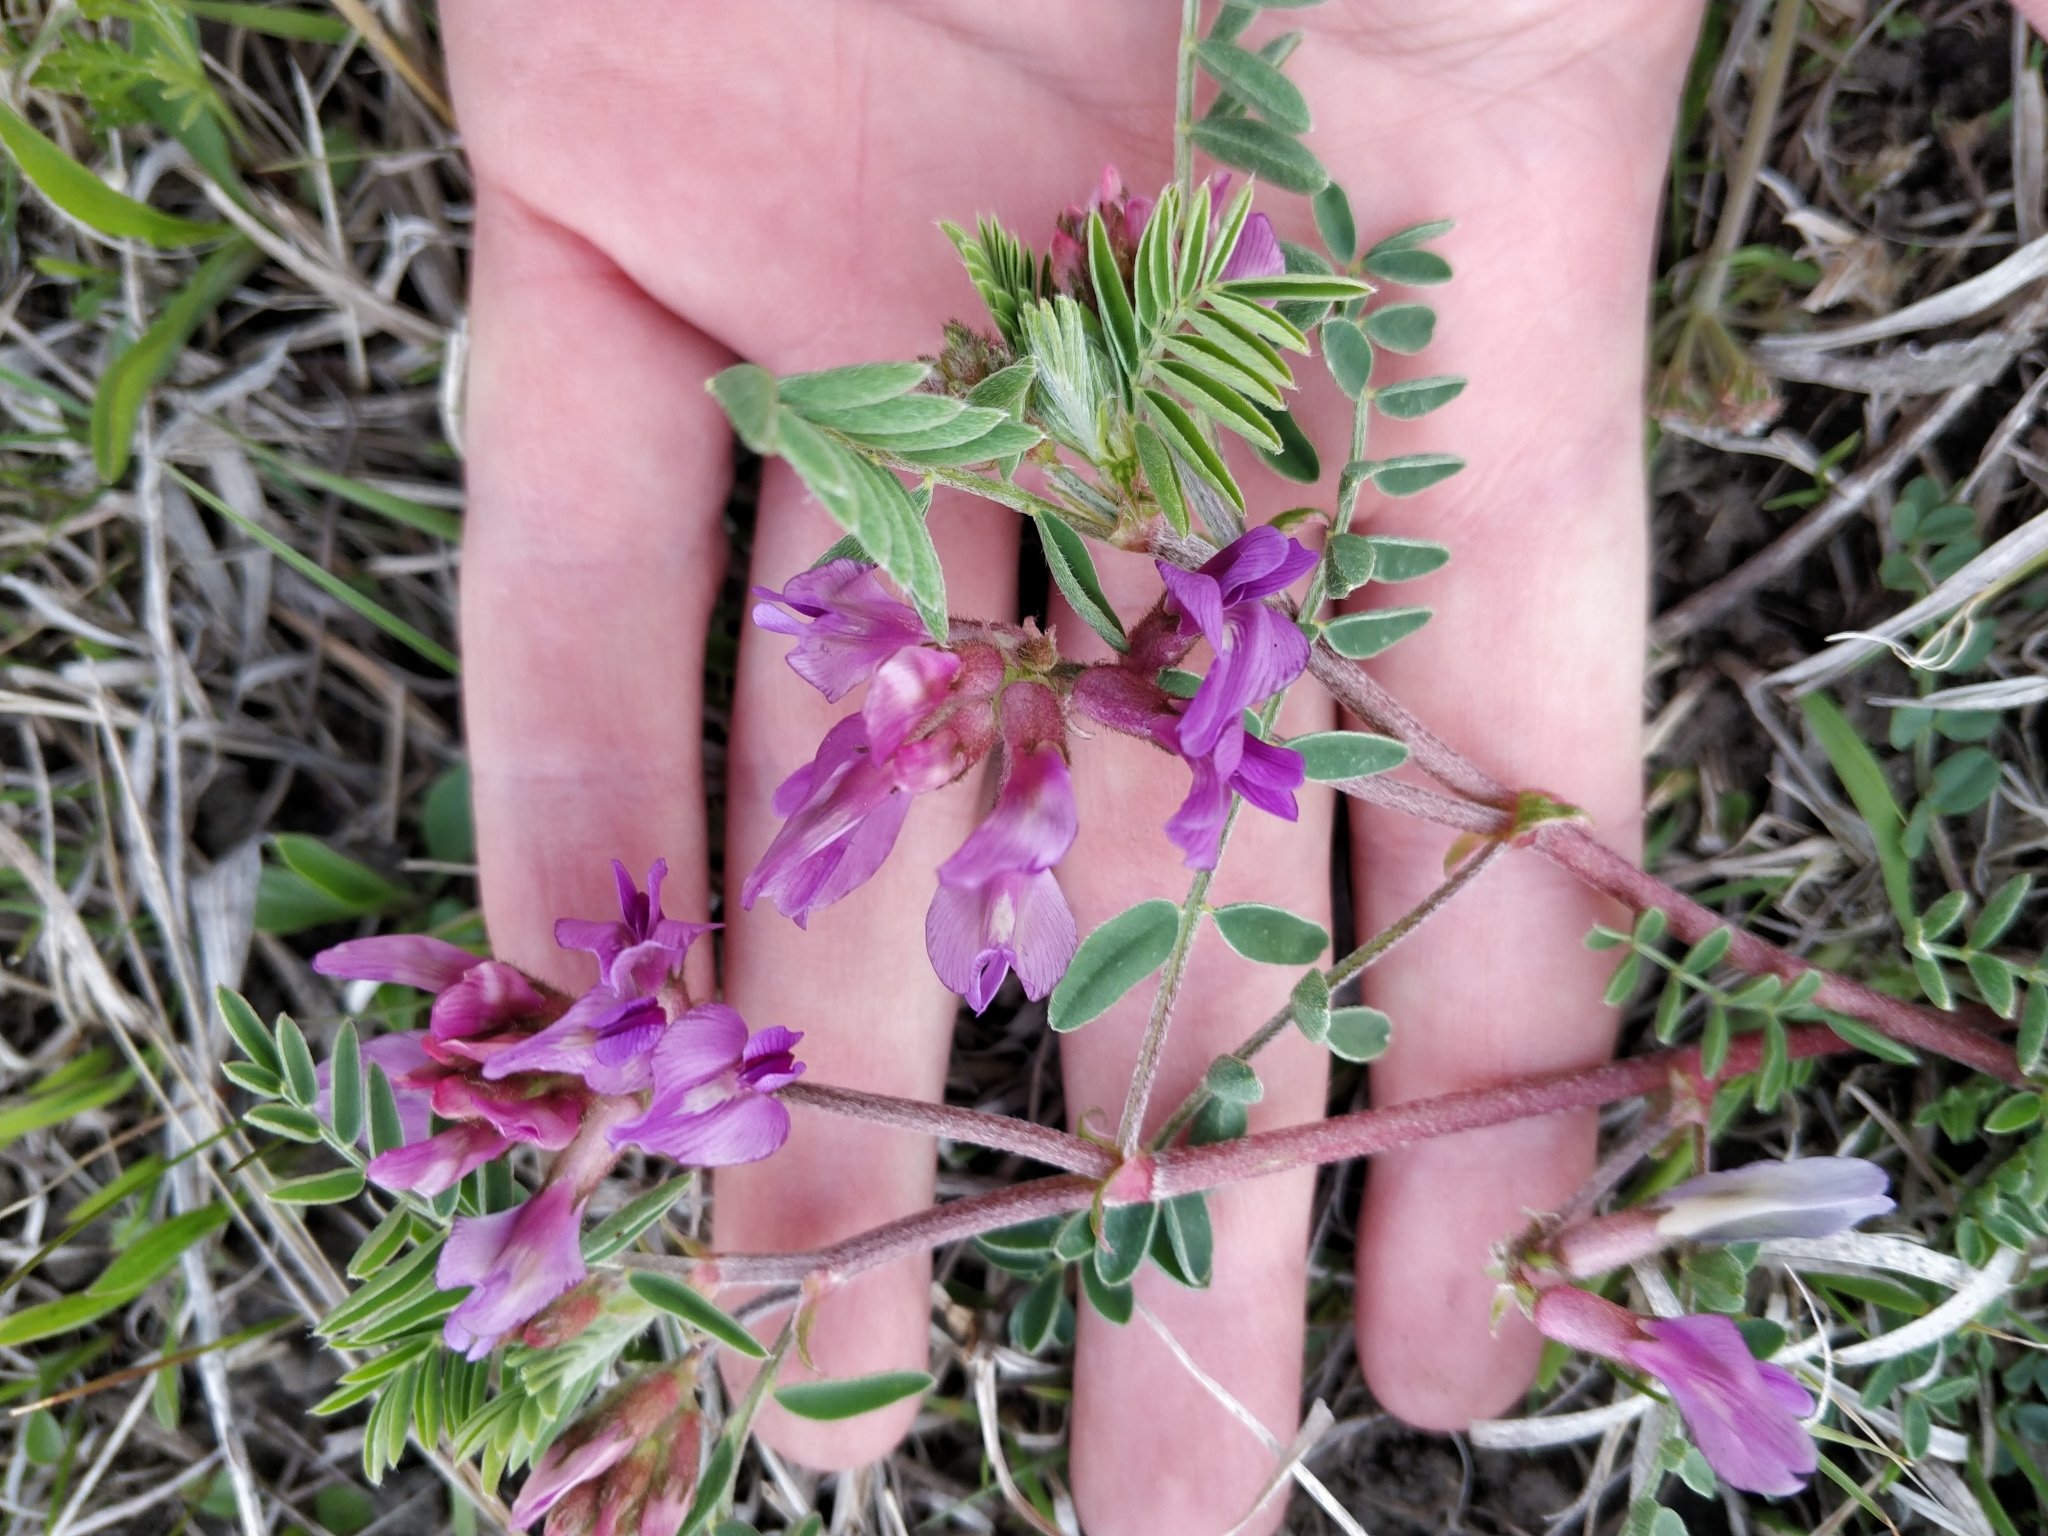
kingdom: Plantae
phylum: Tracheophyta
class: Magnoliopsida
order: Fabales
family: Fabaceae
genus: Astragalus
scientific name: Astragalus crassicarpus
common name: Ground-plum milk-vetch
